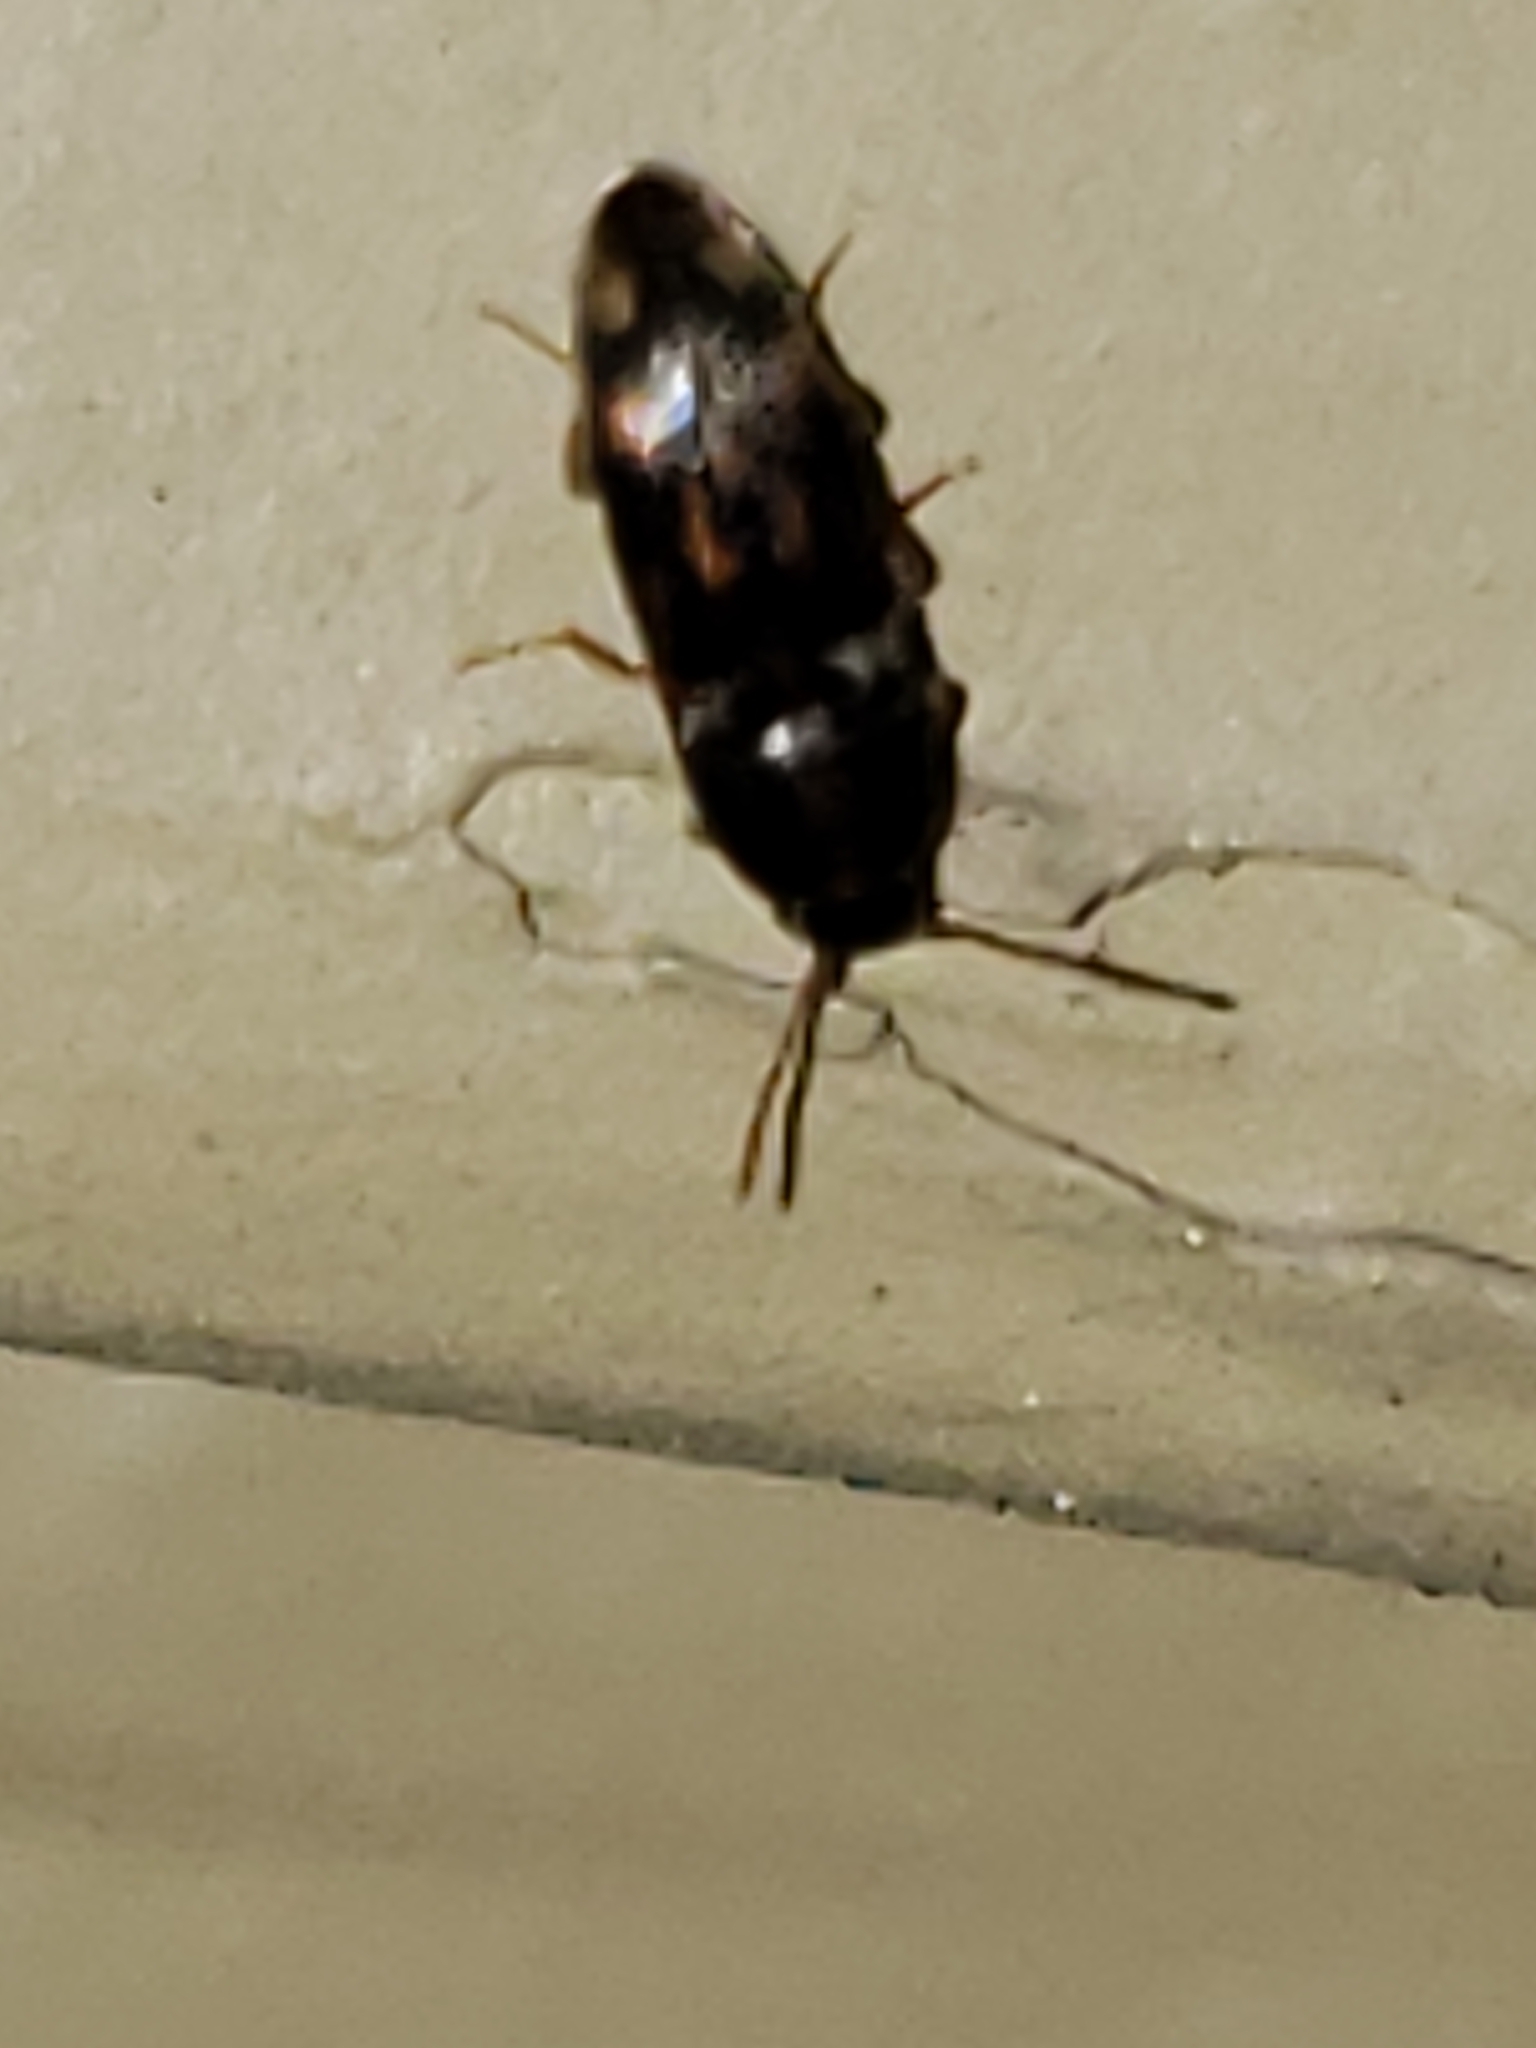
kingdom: Animalia
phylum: Arthropoda
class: Insecta
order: Coleoptera
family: Elateridae
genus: Monocrepidius
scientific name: Monocrepidius bellus
